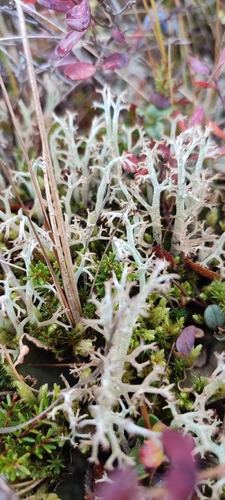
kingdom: Fungi
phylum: Ascomycota
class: Lecanoromycetes
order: Lecanorales
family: Cladoniaceae
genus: Cladonia
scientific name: Cladonia arbuscula
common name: Reindeer lichen
